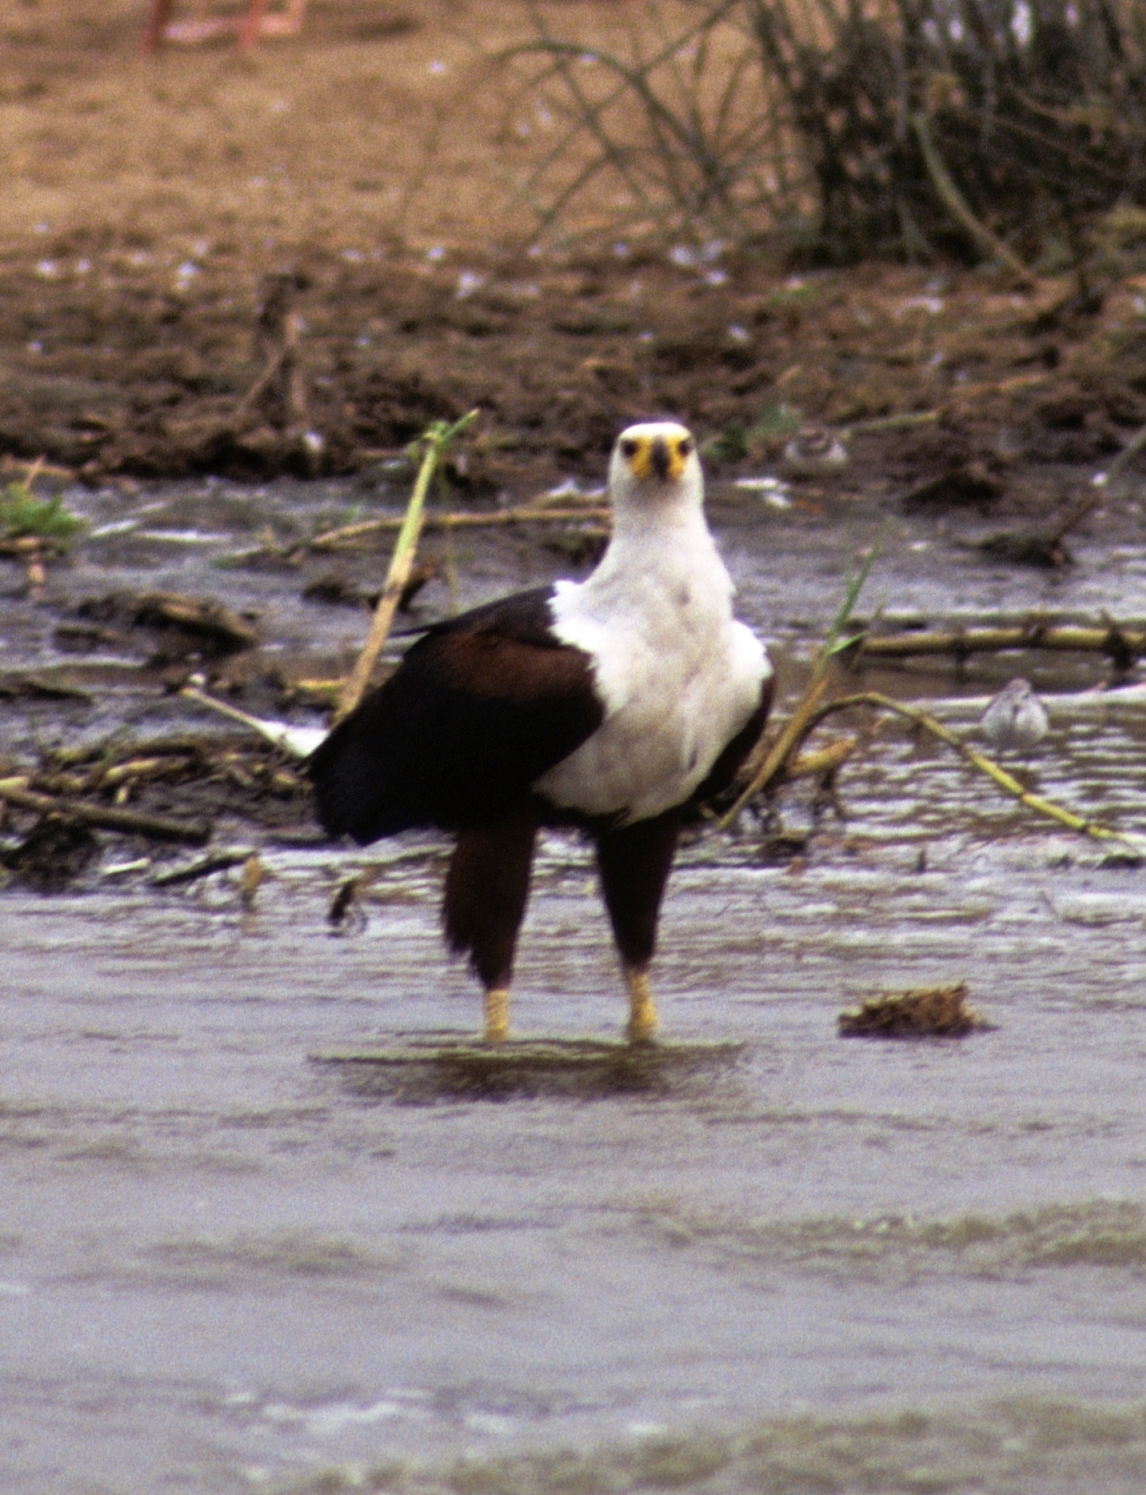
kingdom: Animalia
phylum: Chordata
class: Aves
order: Accipitriformes
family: Accipitridae
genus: Haliaeetus
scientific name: Haliaeetus vocifer
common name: African fish eagle
